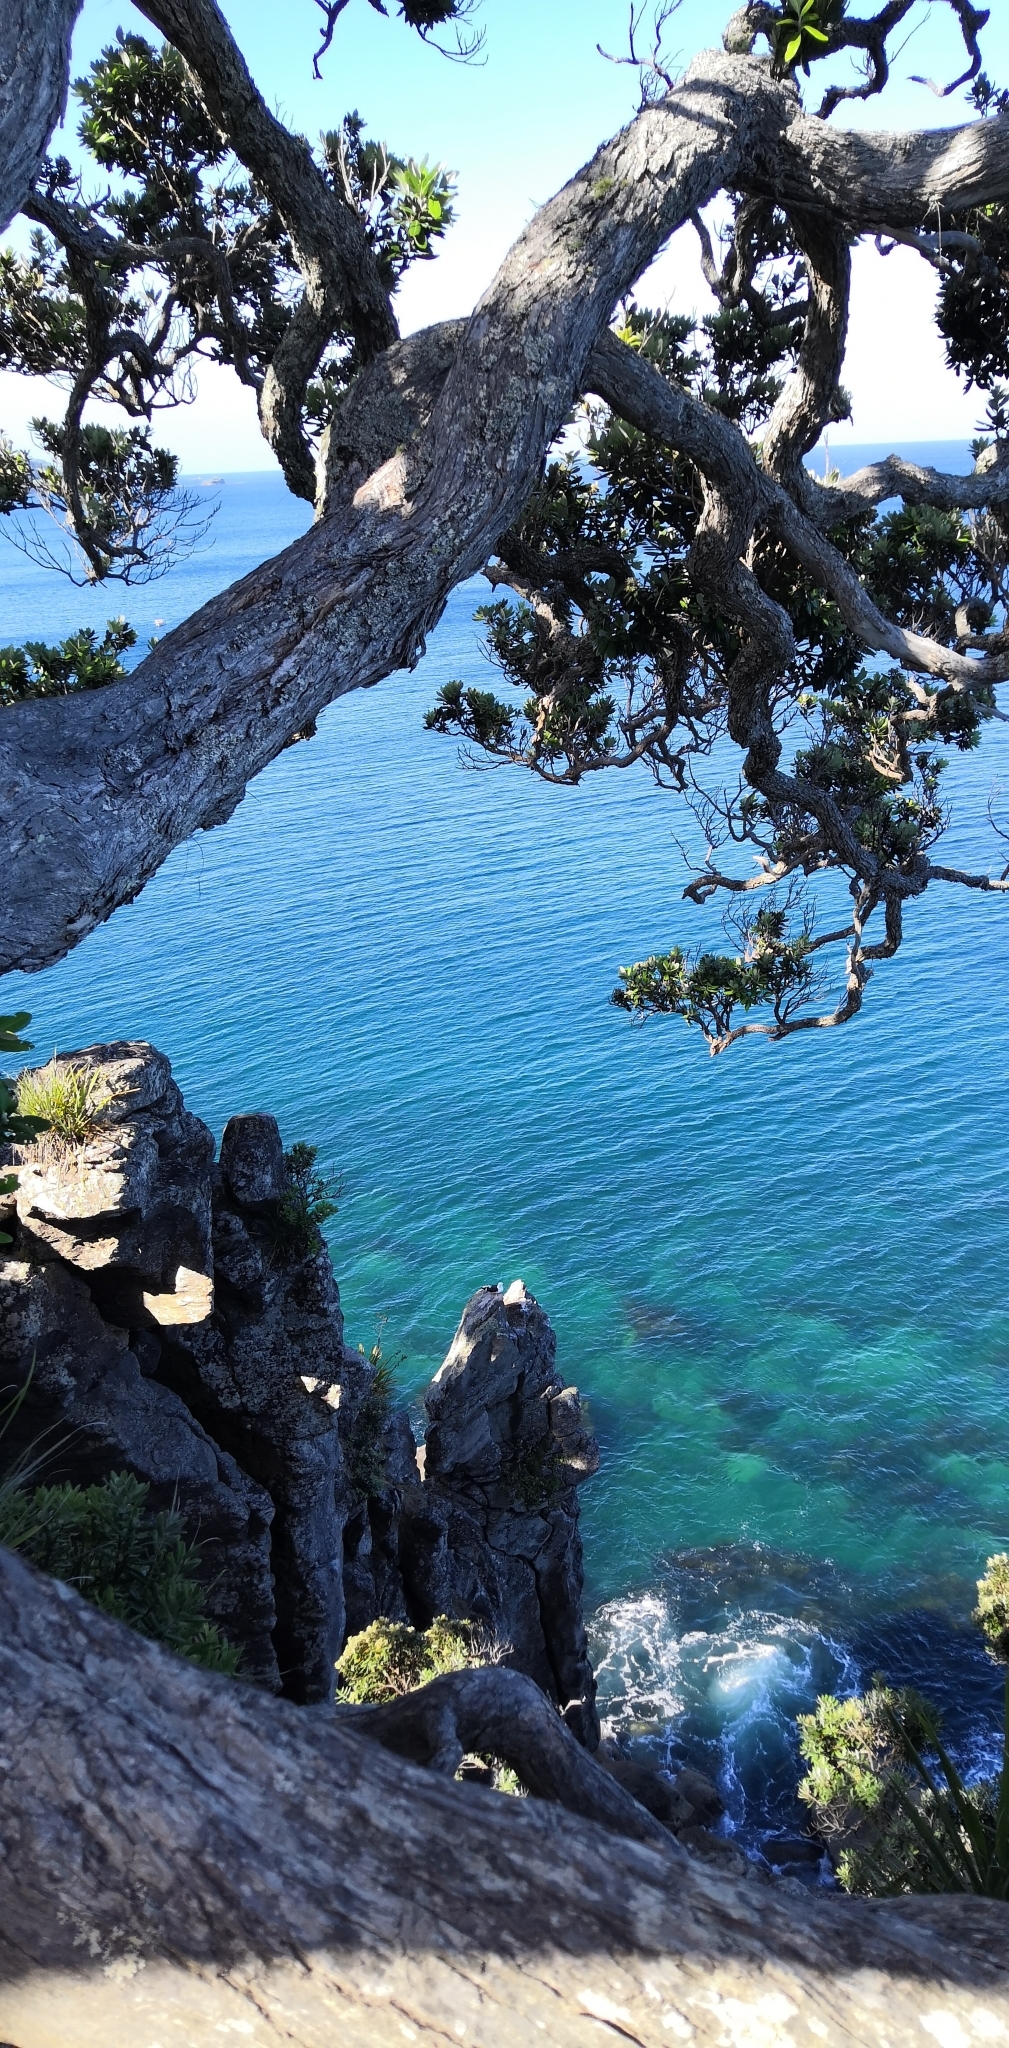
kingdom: Animalia
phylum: Chordata
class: Aves
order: Charadriiformes
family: Laridae
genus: Larus
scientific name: Larus dominicanus
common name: Kelp gull
